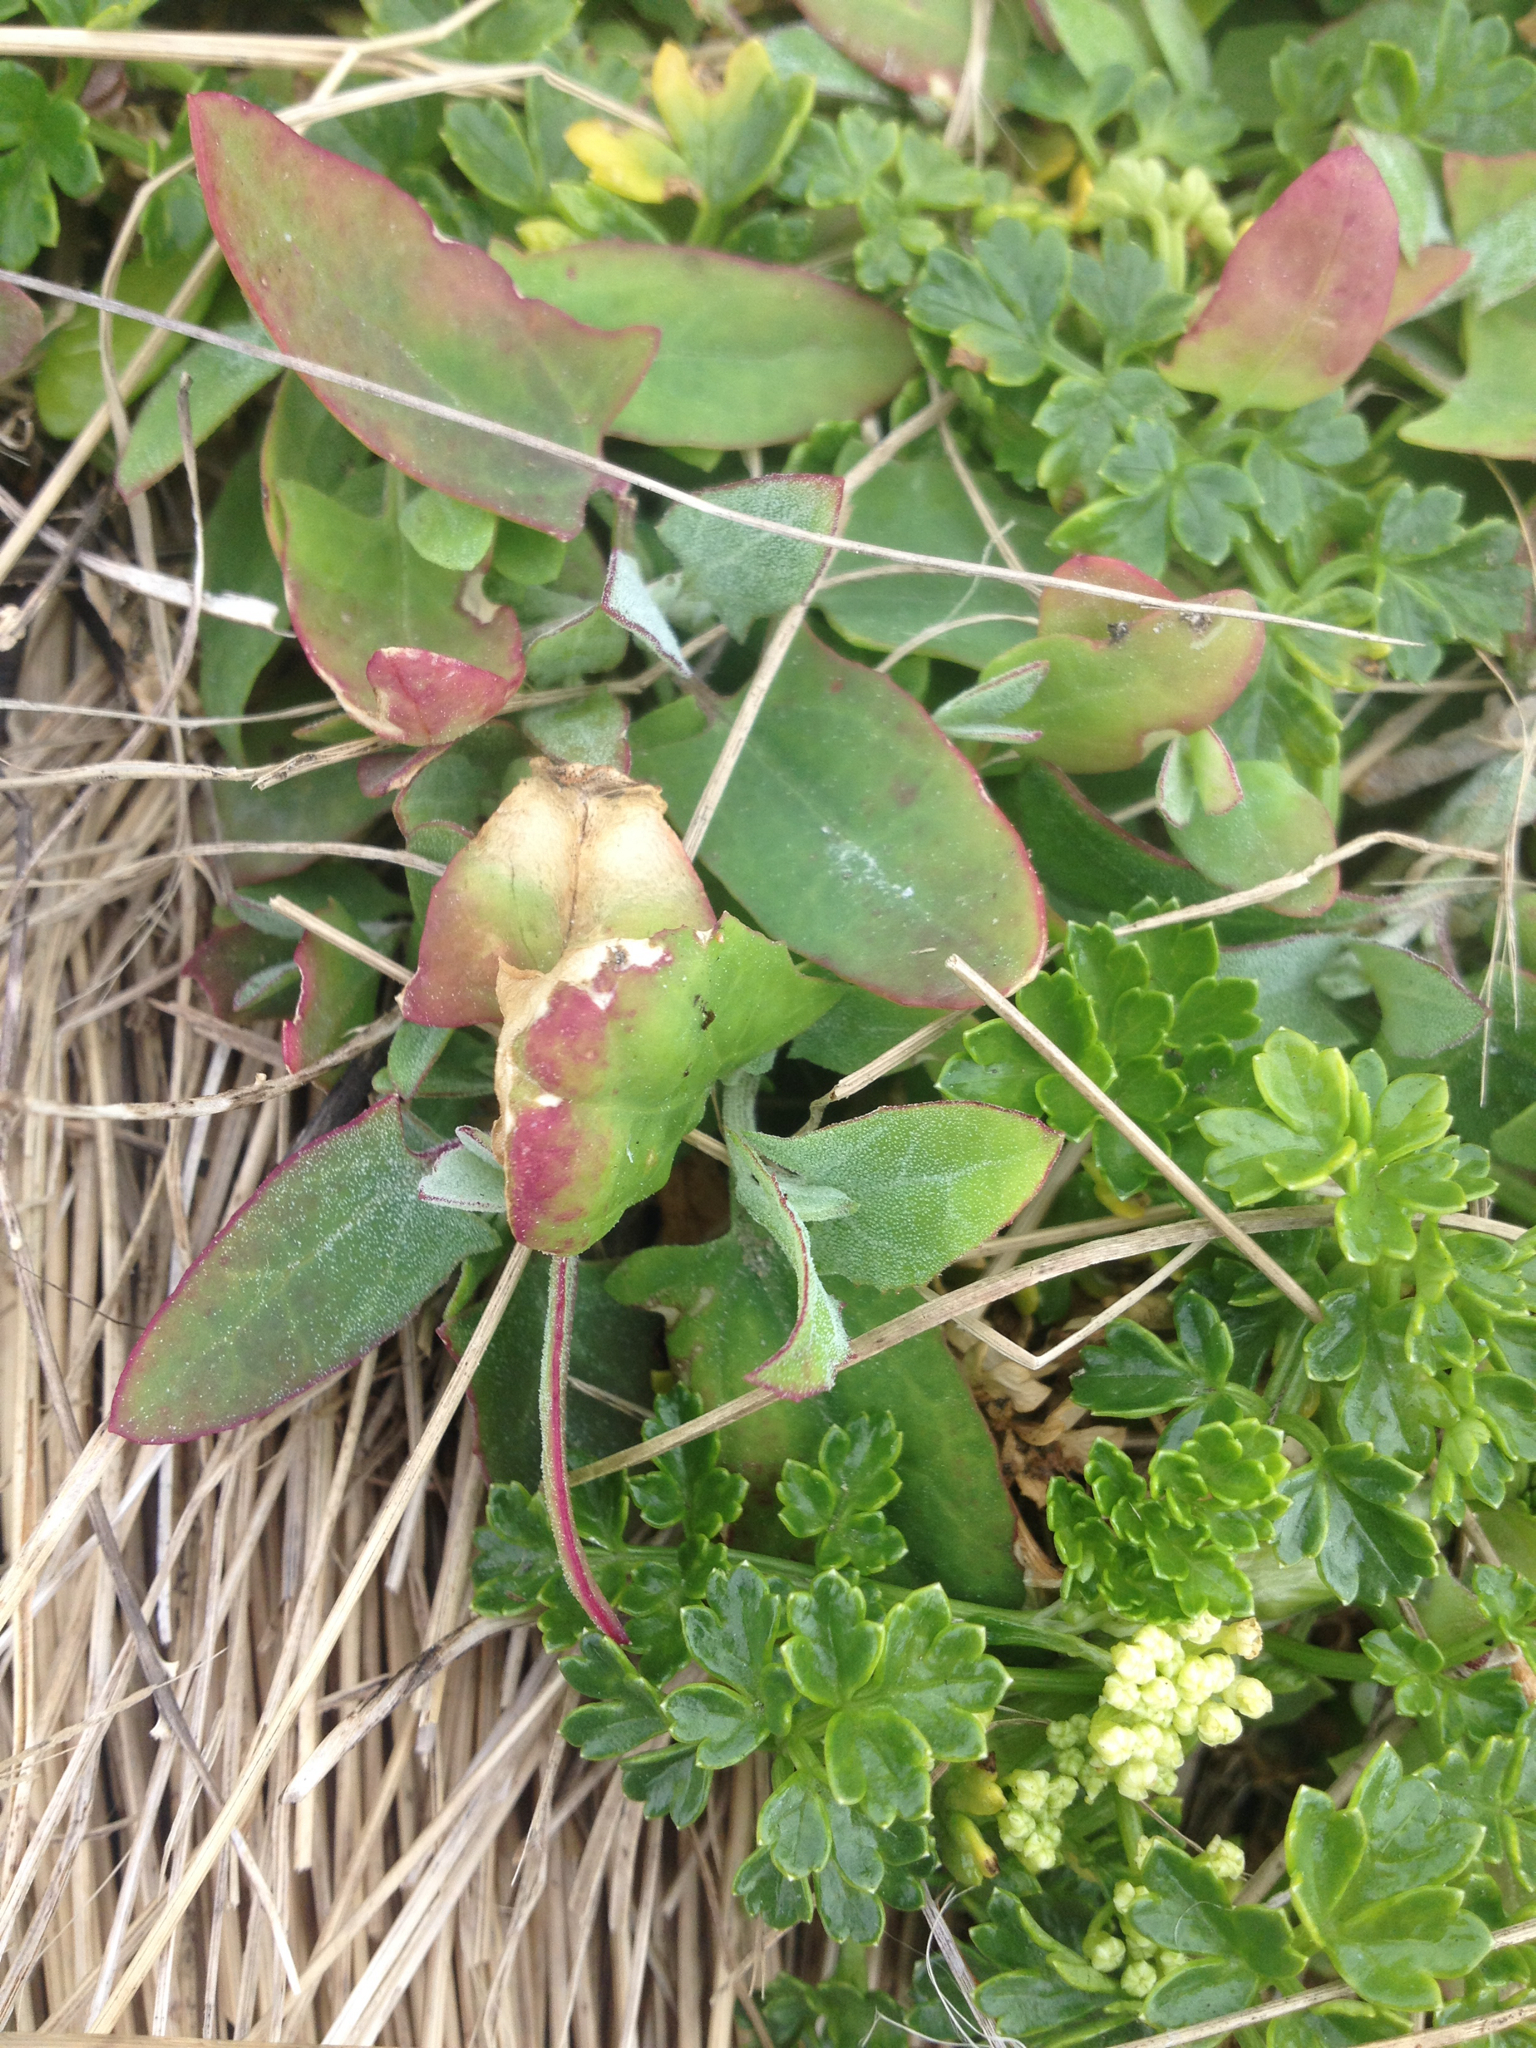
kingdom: Plantae
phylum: Tracheophyta
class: Magnoliopsida
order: Caryophyllales
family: Amaranthaceae
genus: Atriplex
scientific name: Atriplex prostrata
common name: Spear-leaved orache
